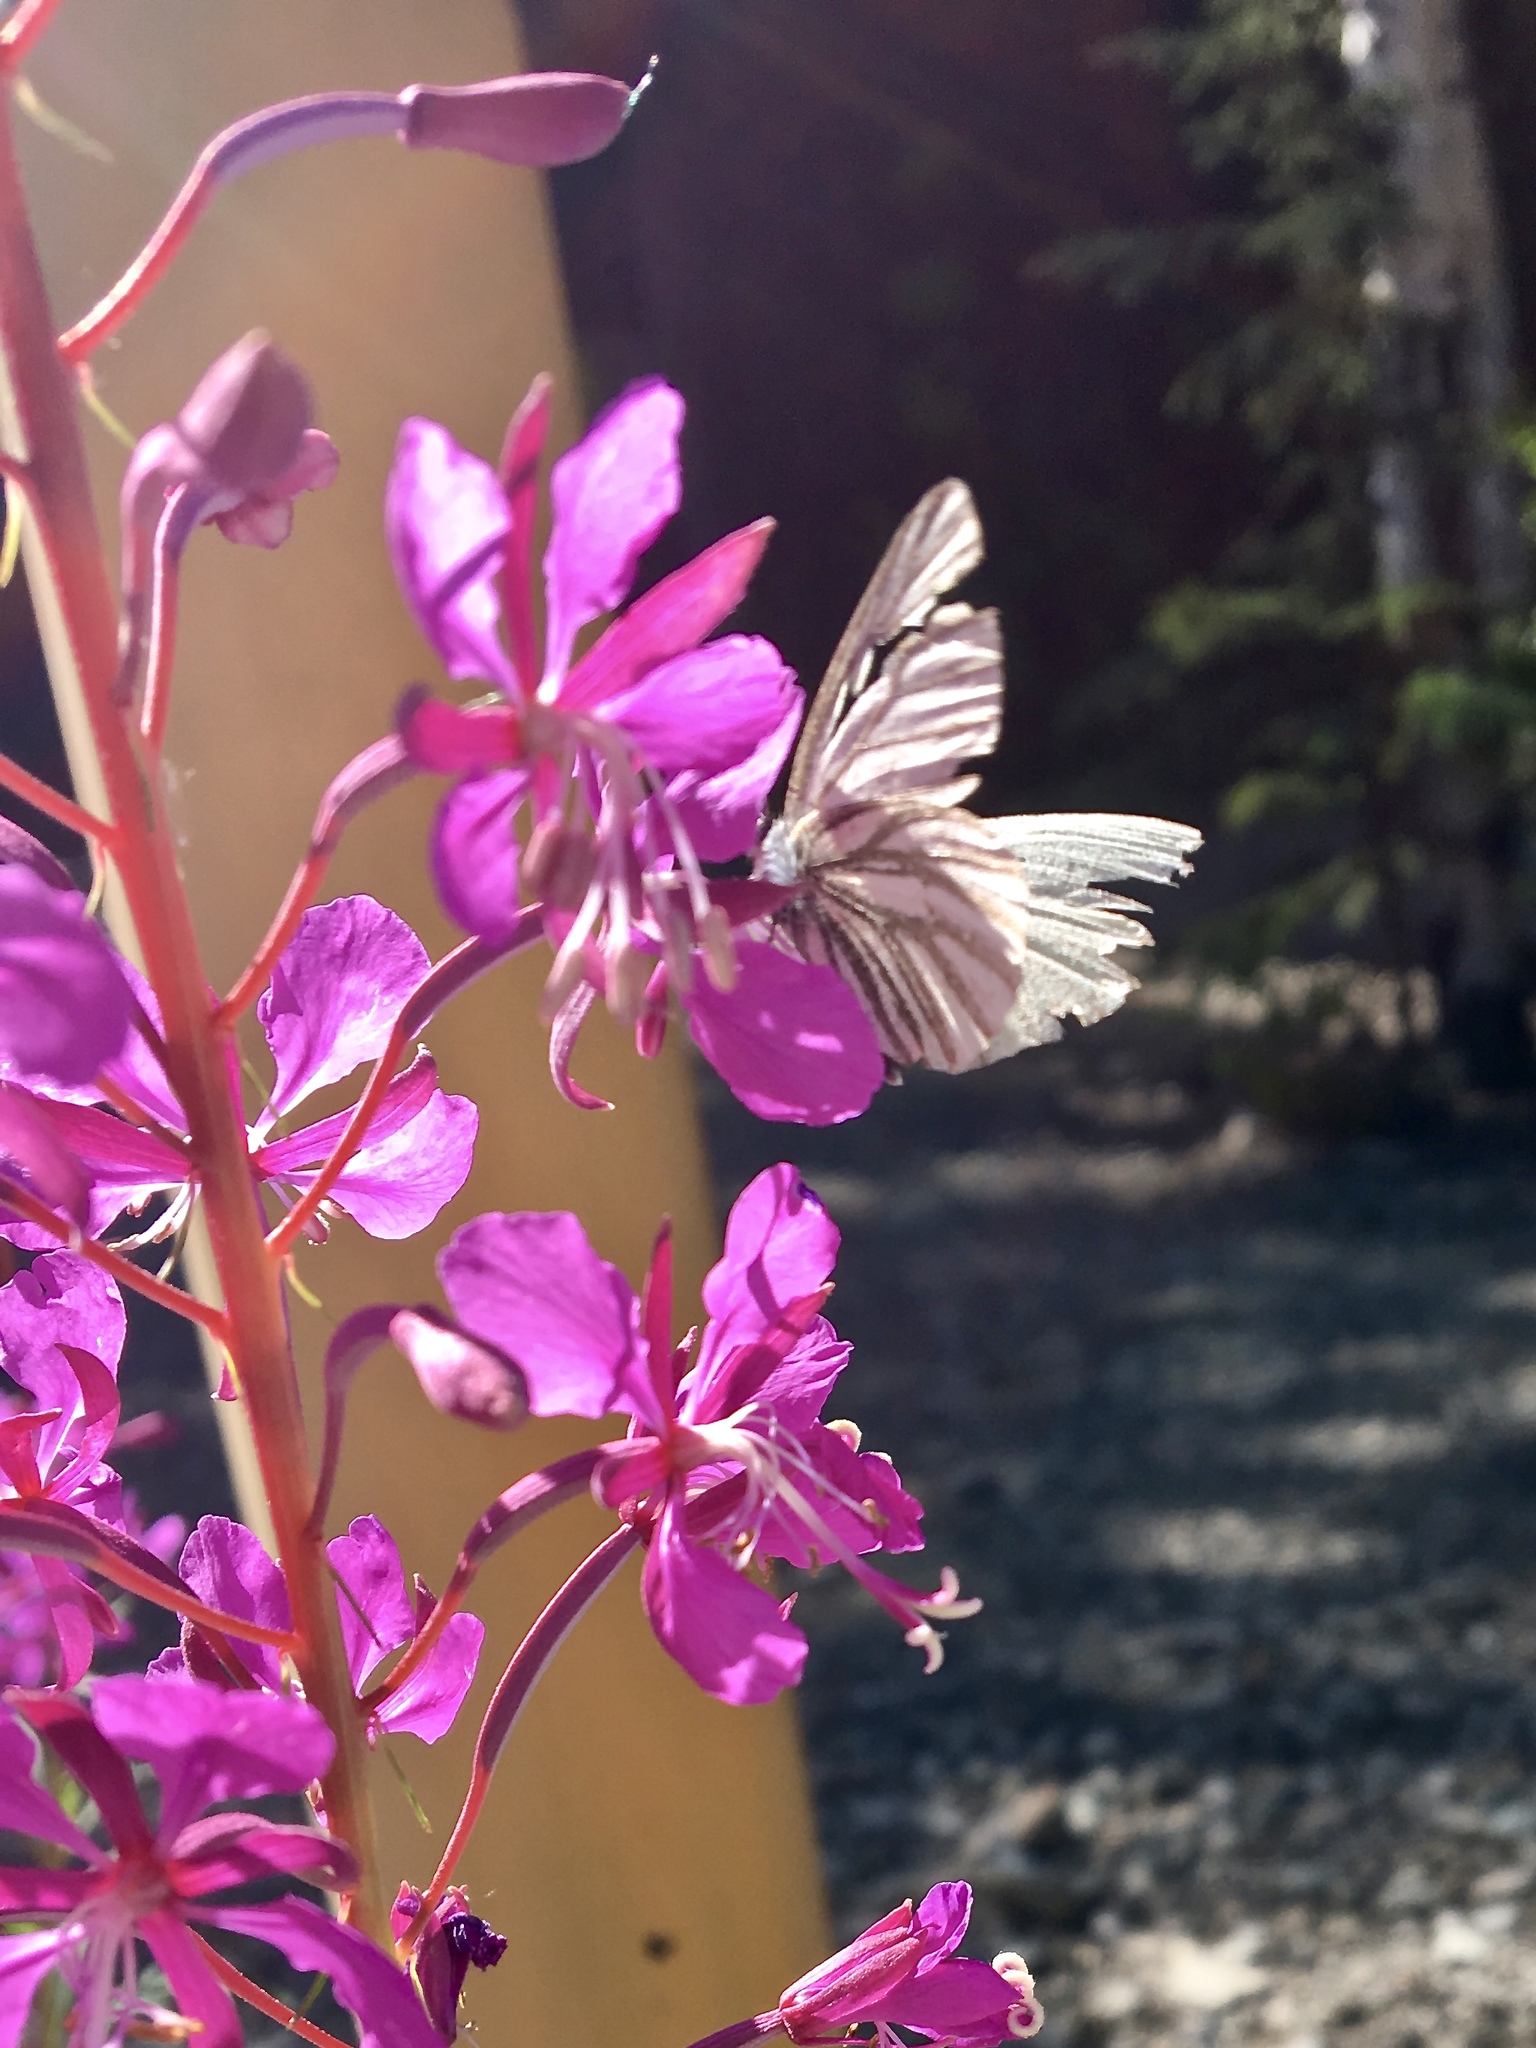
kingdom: Animalia
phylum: Arthropoda
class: Insecta
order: Lepidoptera
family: Pieridae
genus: Pieris
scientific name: Pieris angelika
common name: Arctic white
